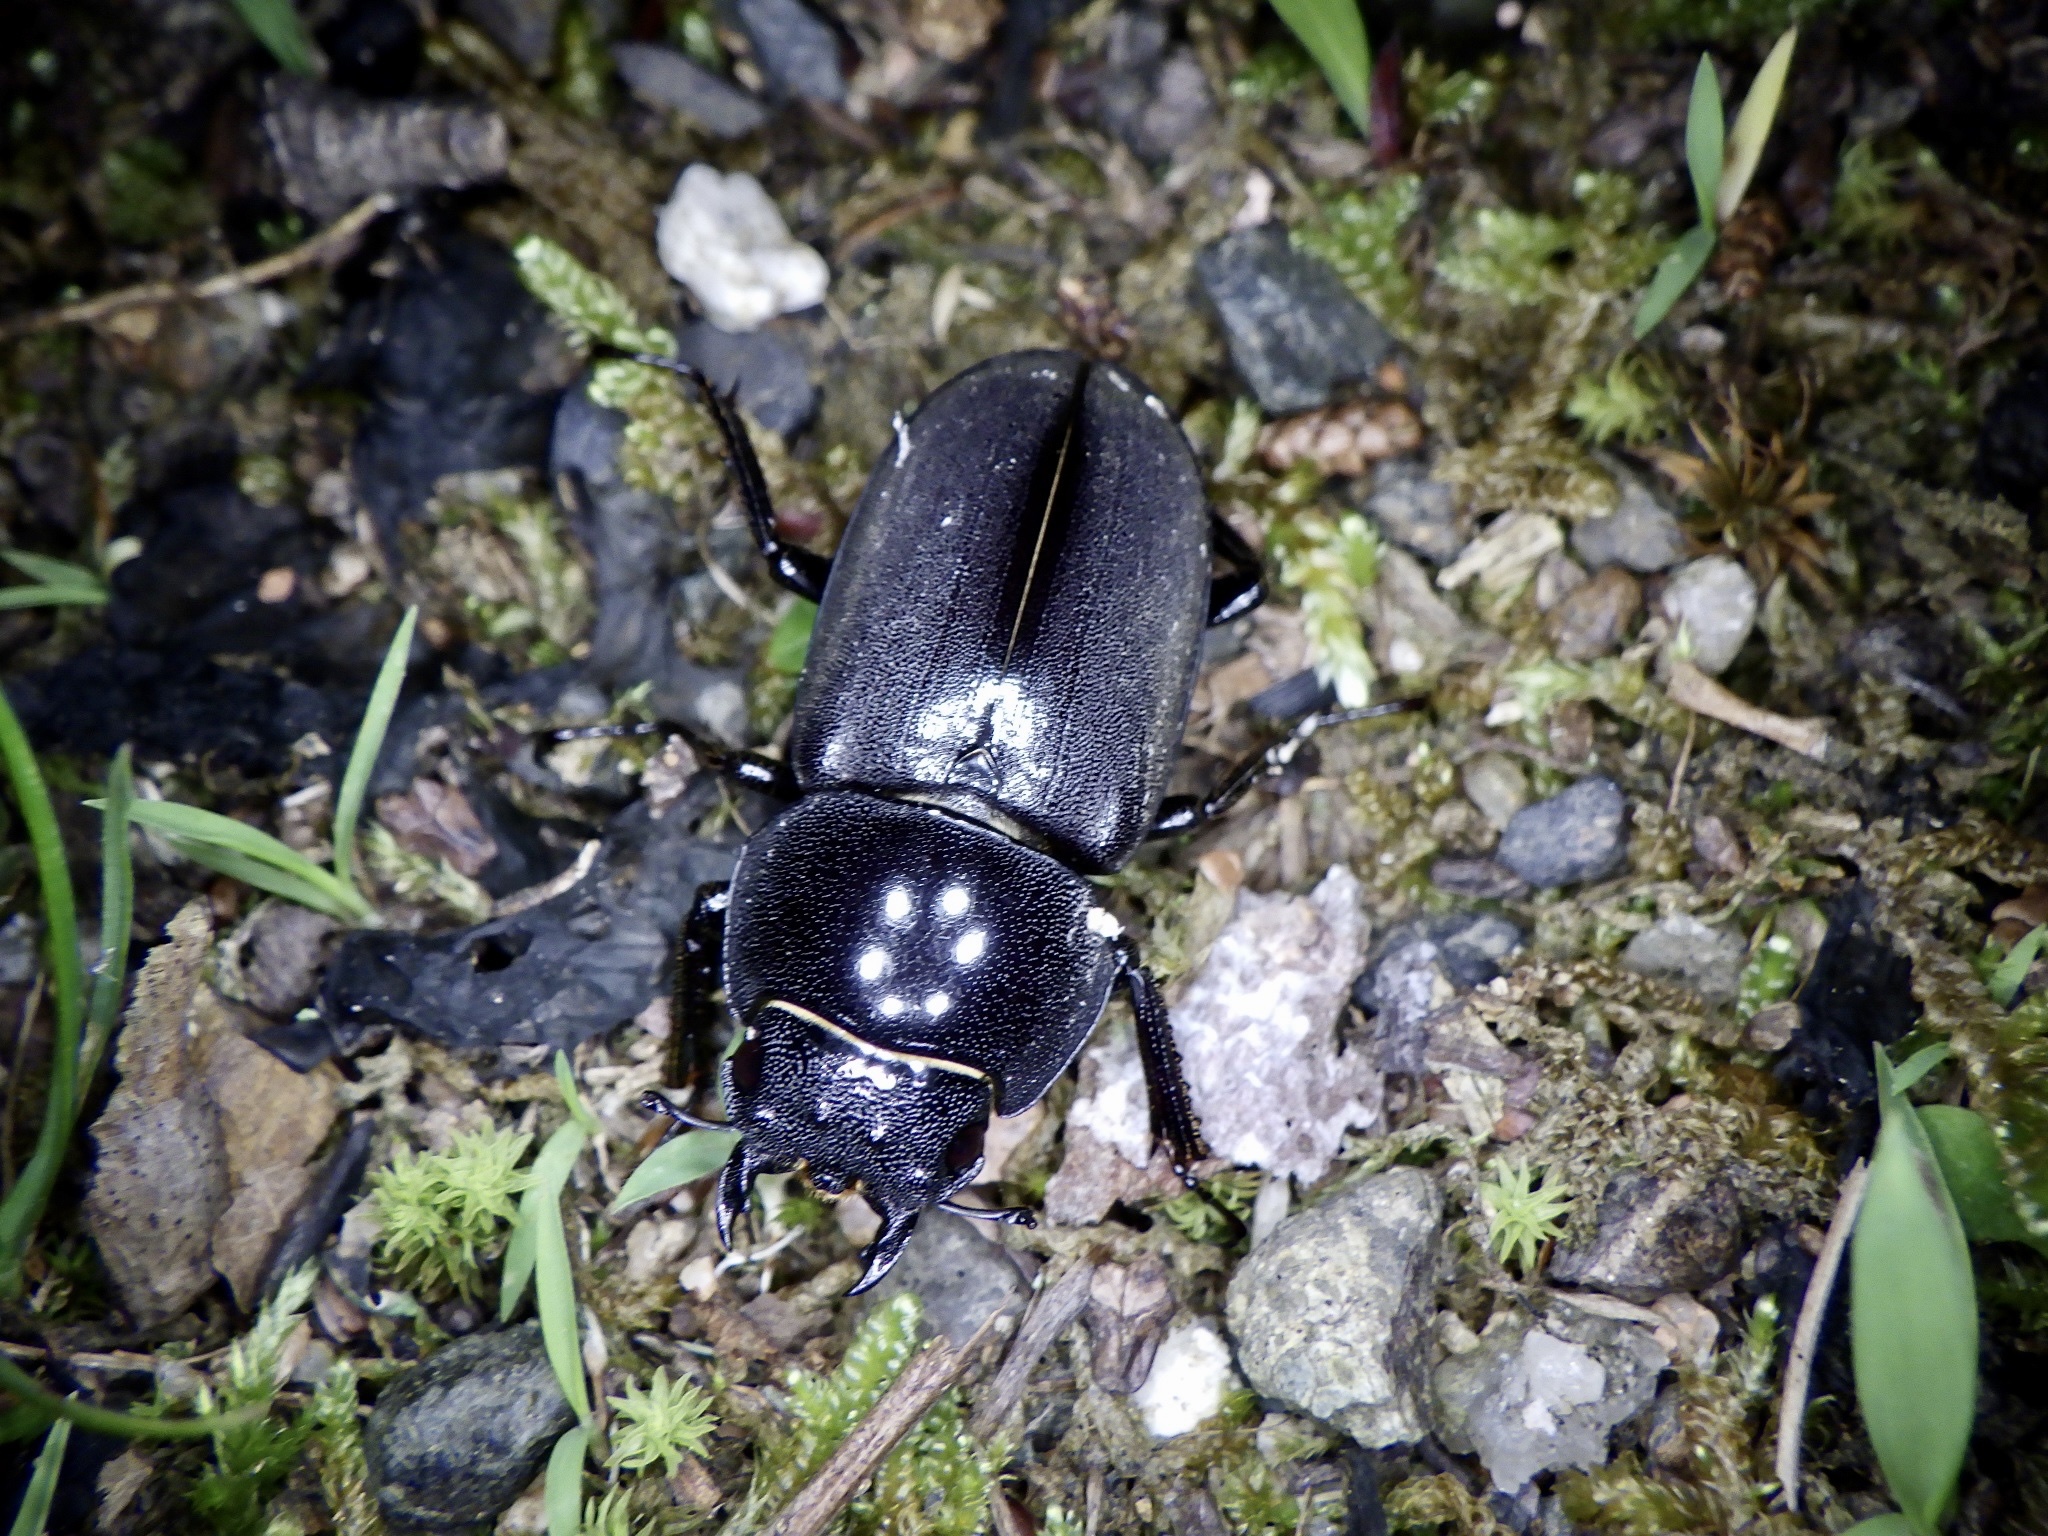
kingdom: Animalia
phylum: Arthropoda
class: Insecta
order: Coleoptera
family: Lucanidae
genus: Dorcus
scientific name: Dorcus rectus
